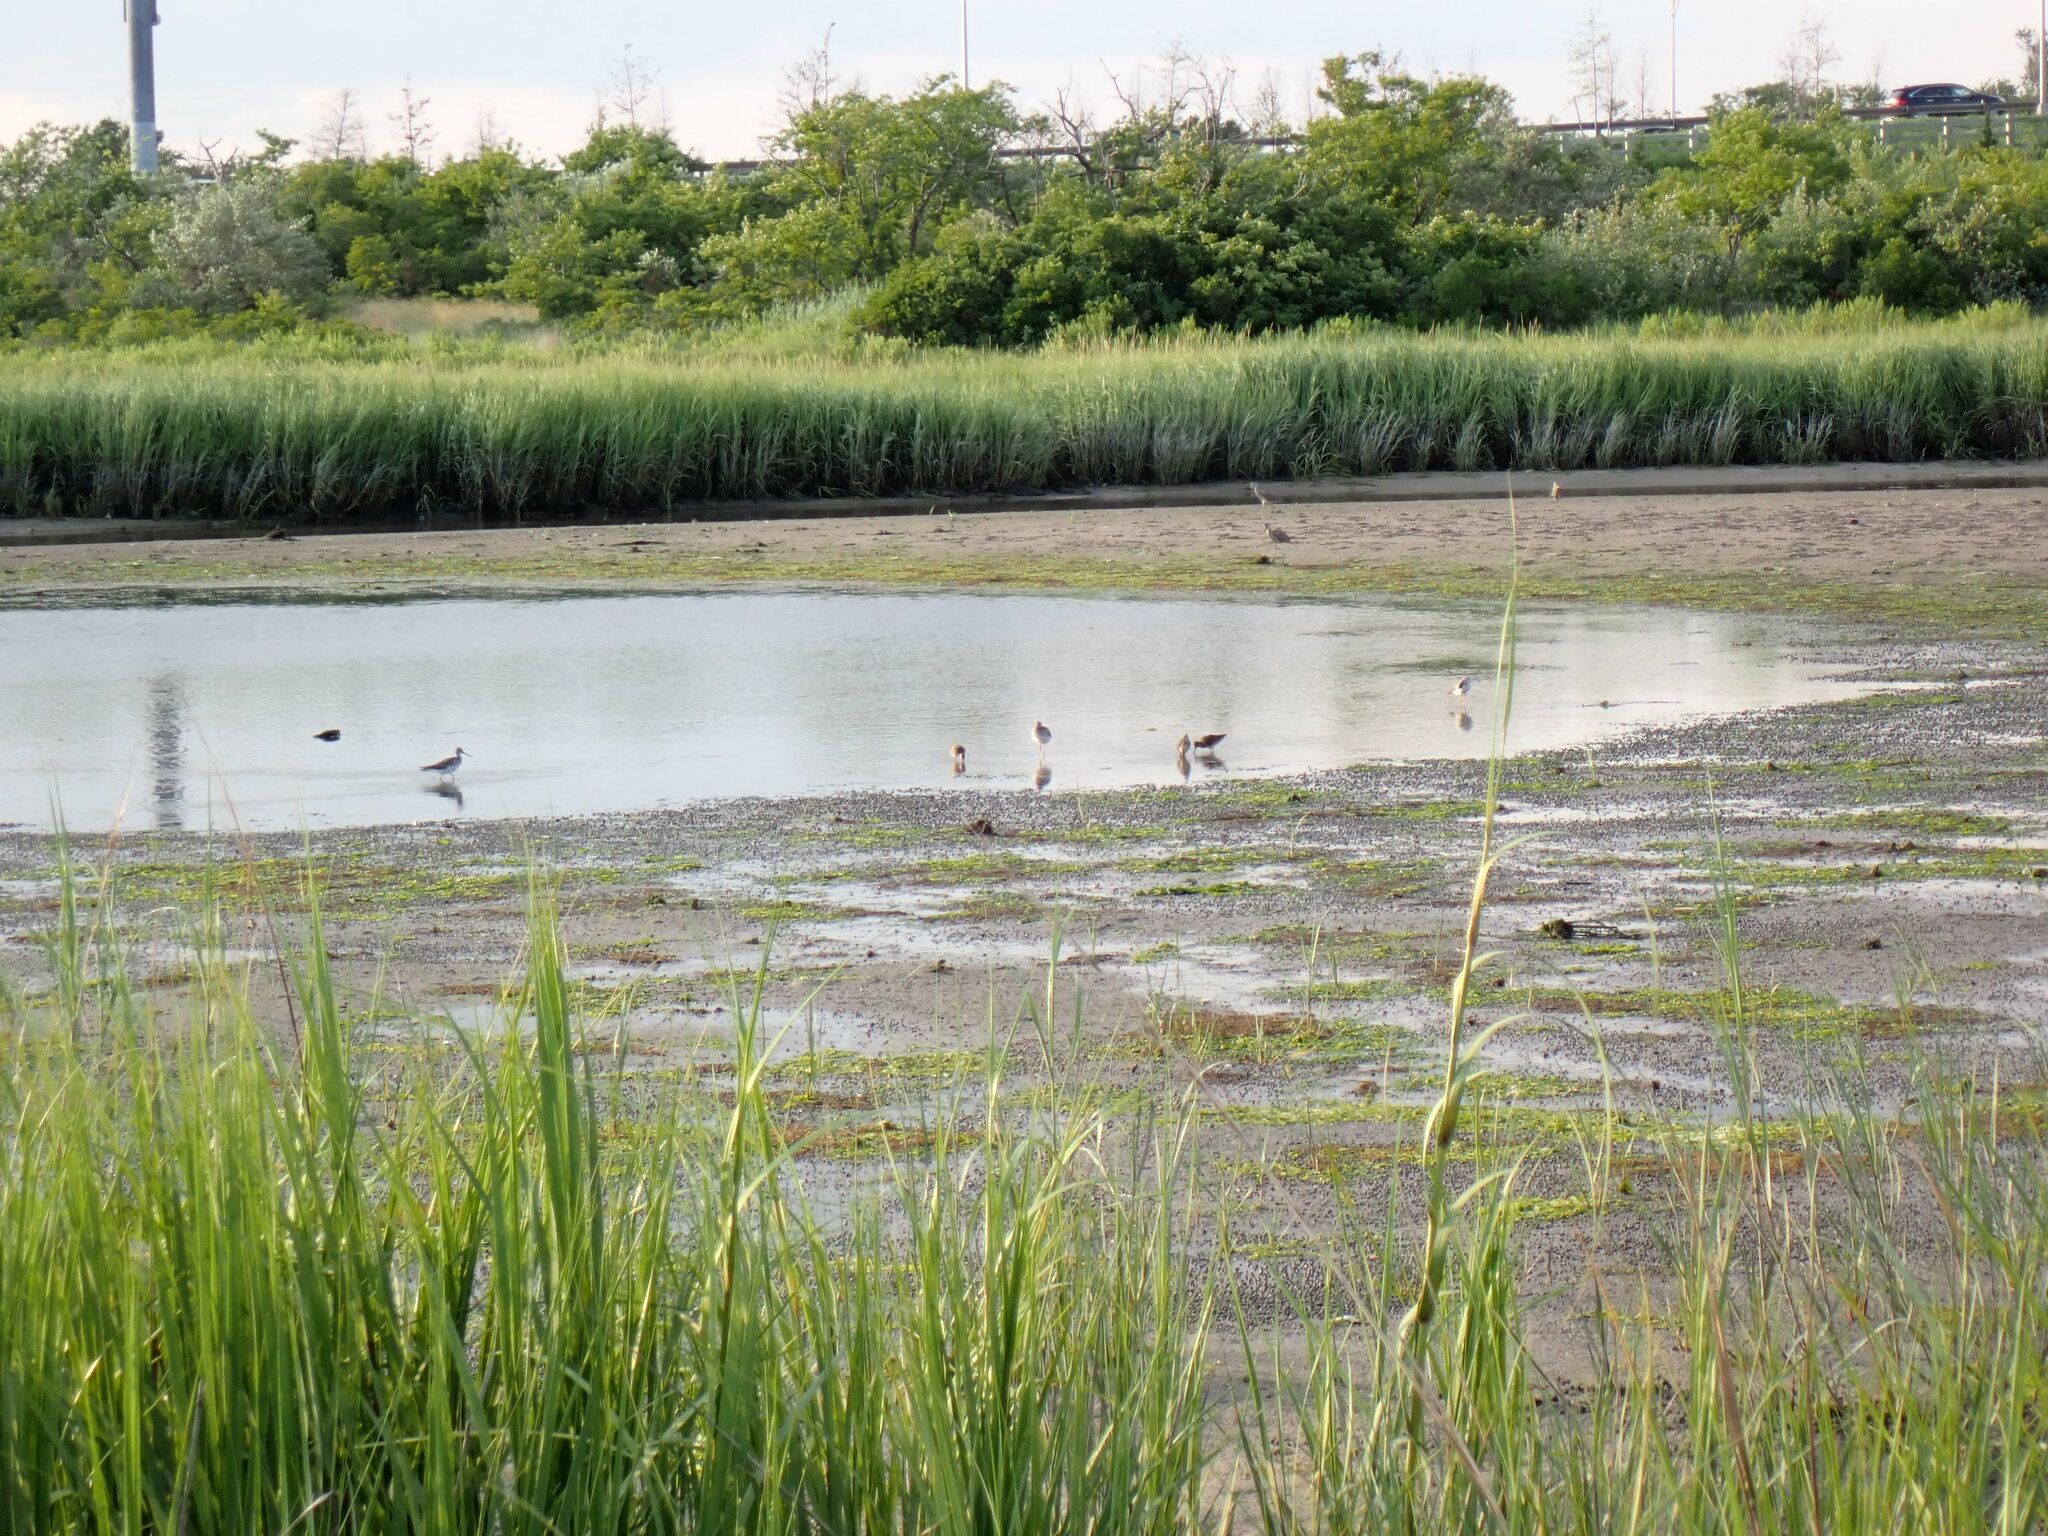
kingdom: Animalia
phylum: Chordata
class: Aves
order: Charadriiformes
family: Scolopacidae
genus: Tringa
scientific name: Tringa melanoleuca
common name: Greater yellowlegs
